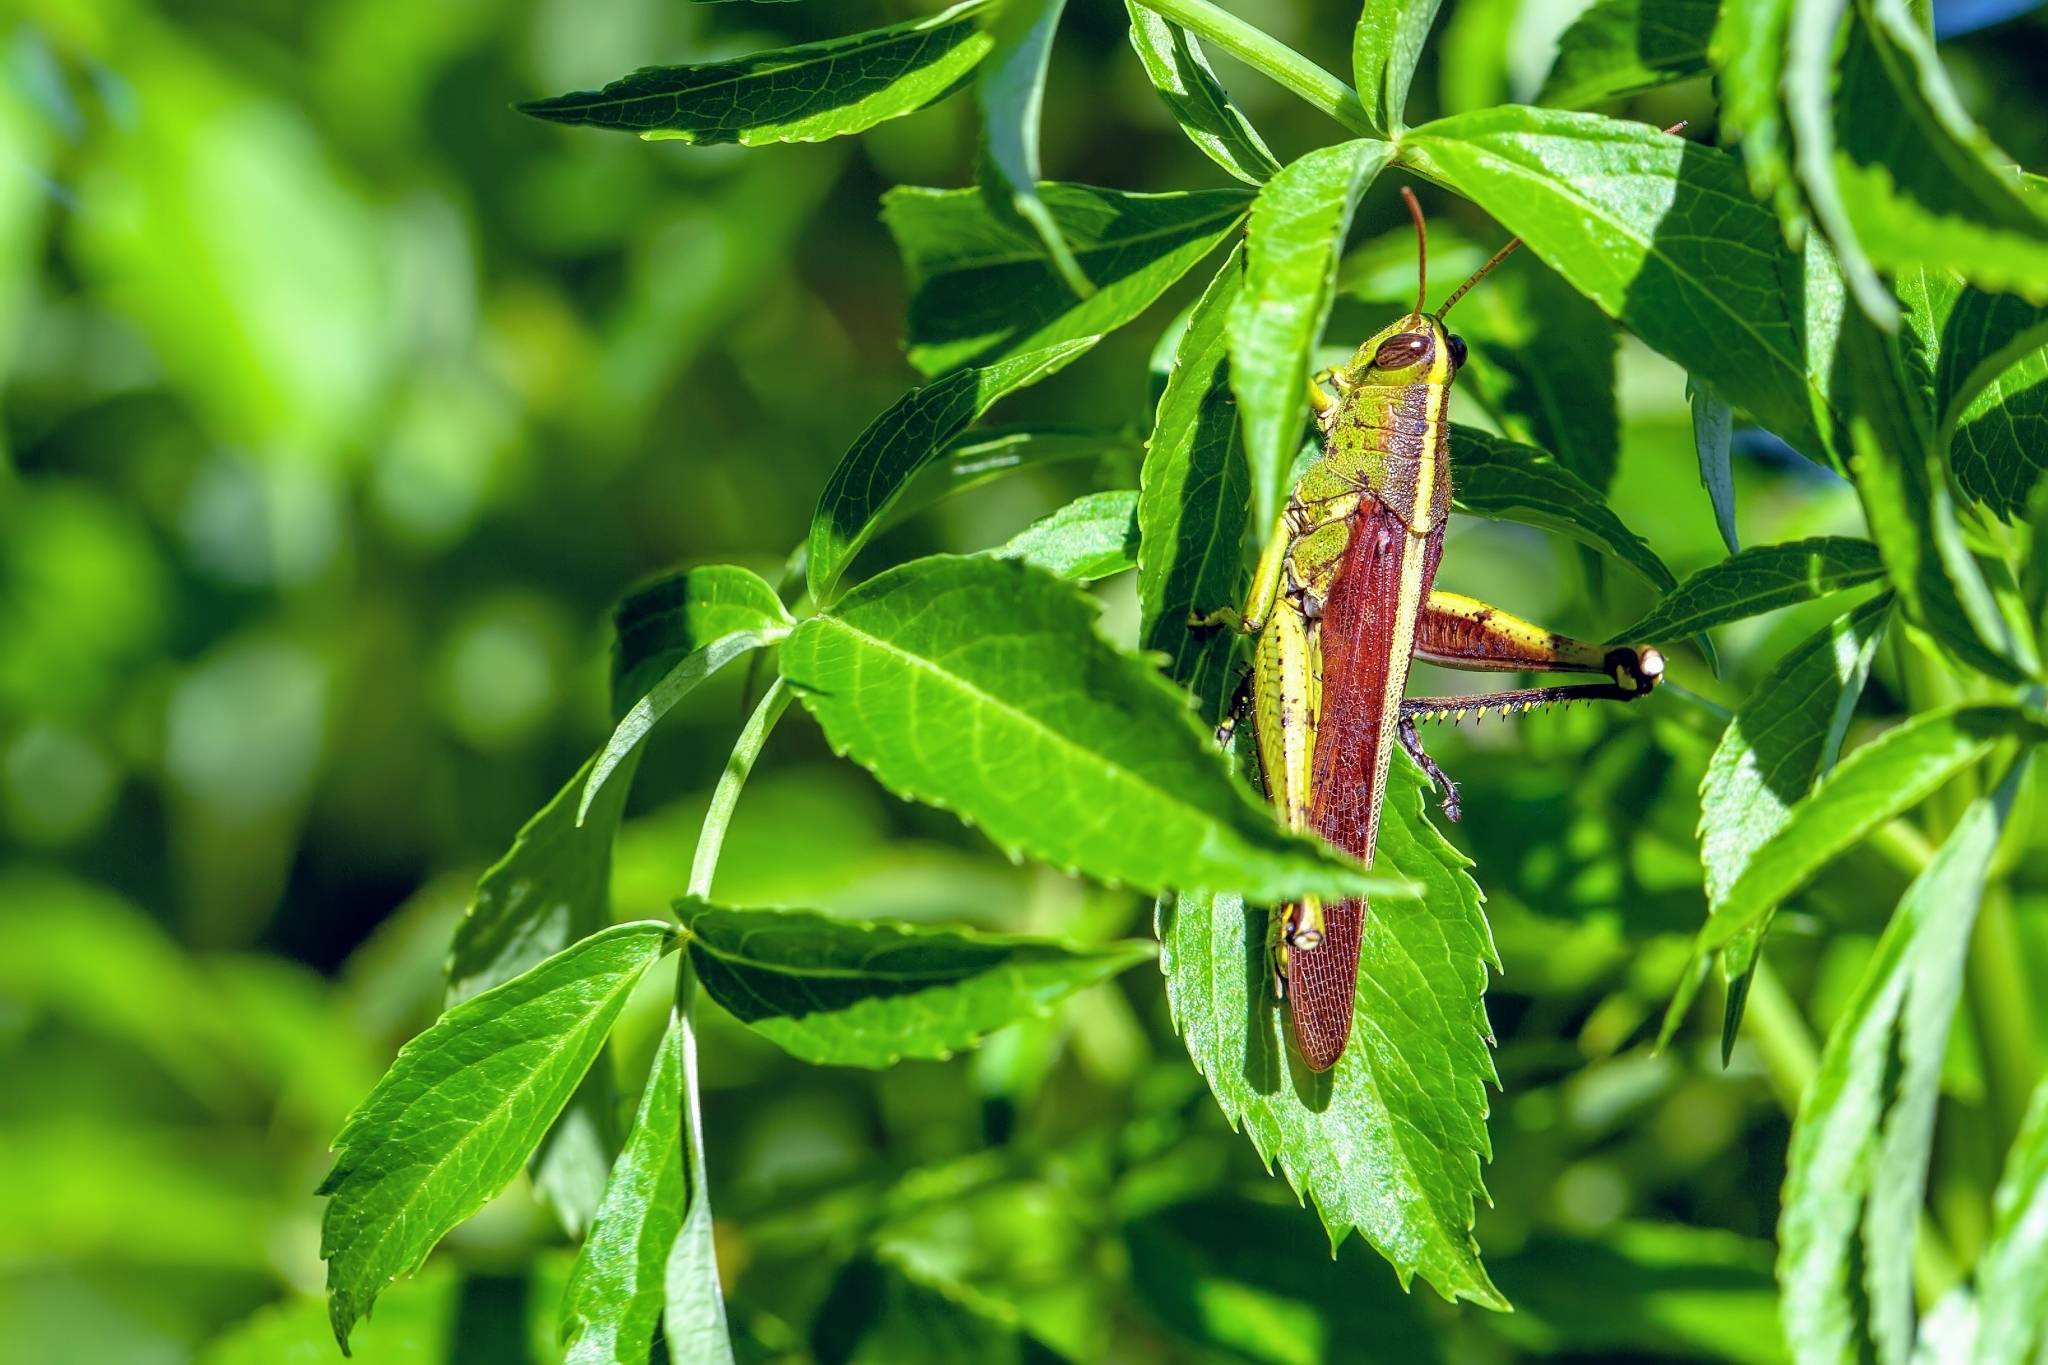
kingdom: Animalia
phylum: Arthropoda
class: Insecta
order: Orthoptera
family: Acrididae
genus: Schistocerca
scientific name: Schistocerca obscura
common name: Obscure bird grasshopper
